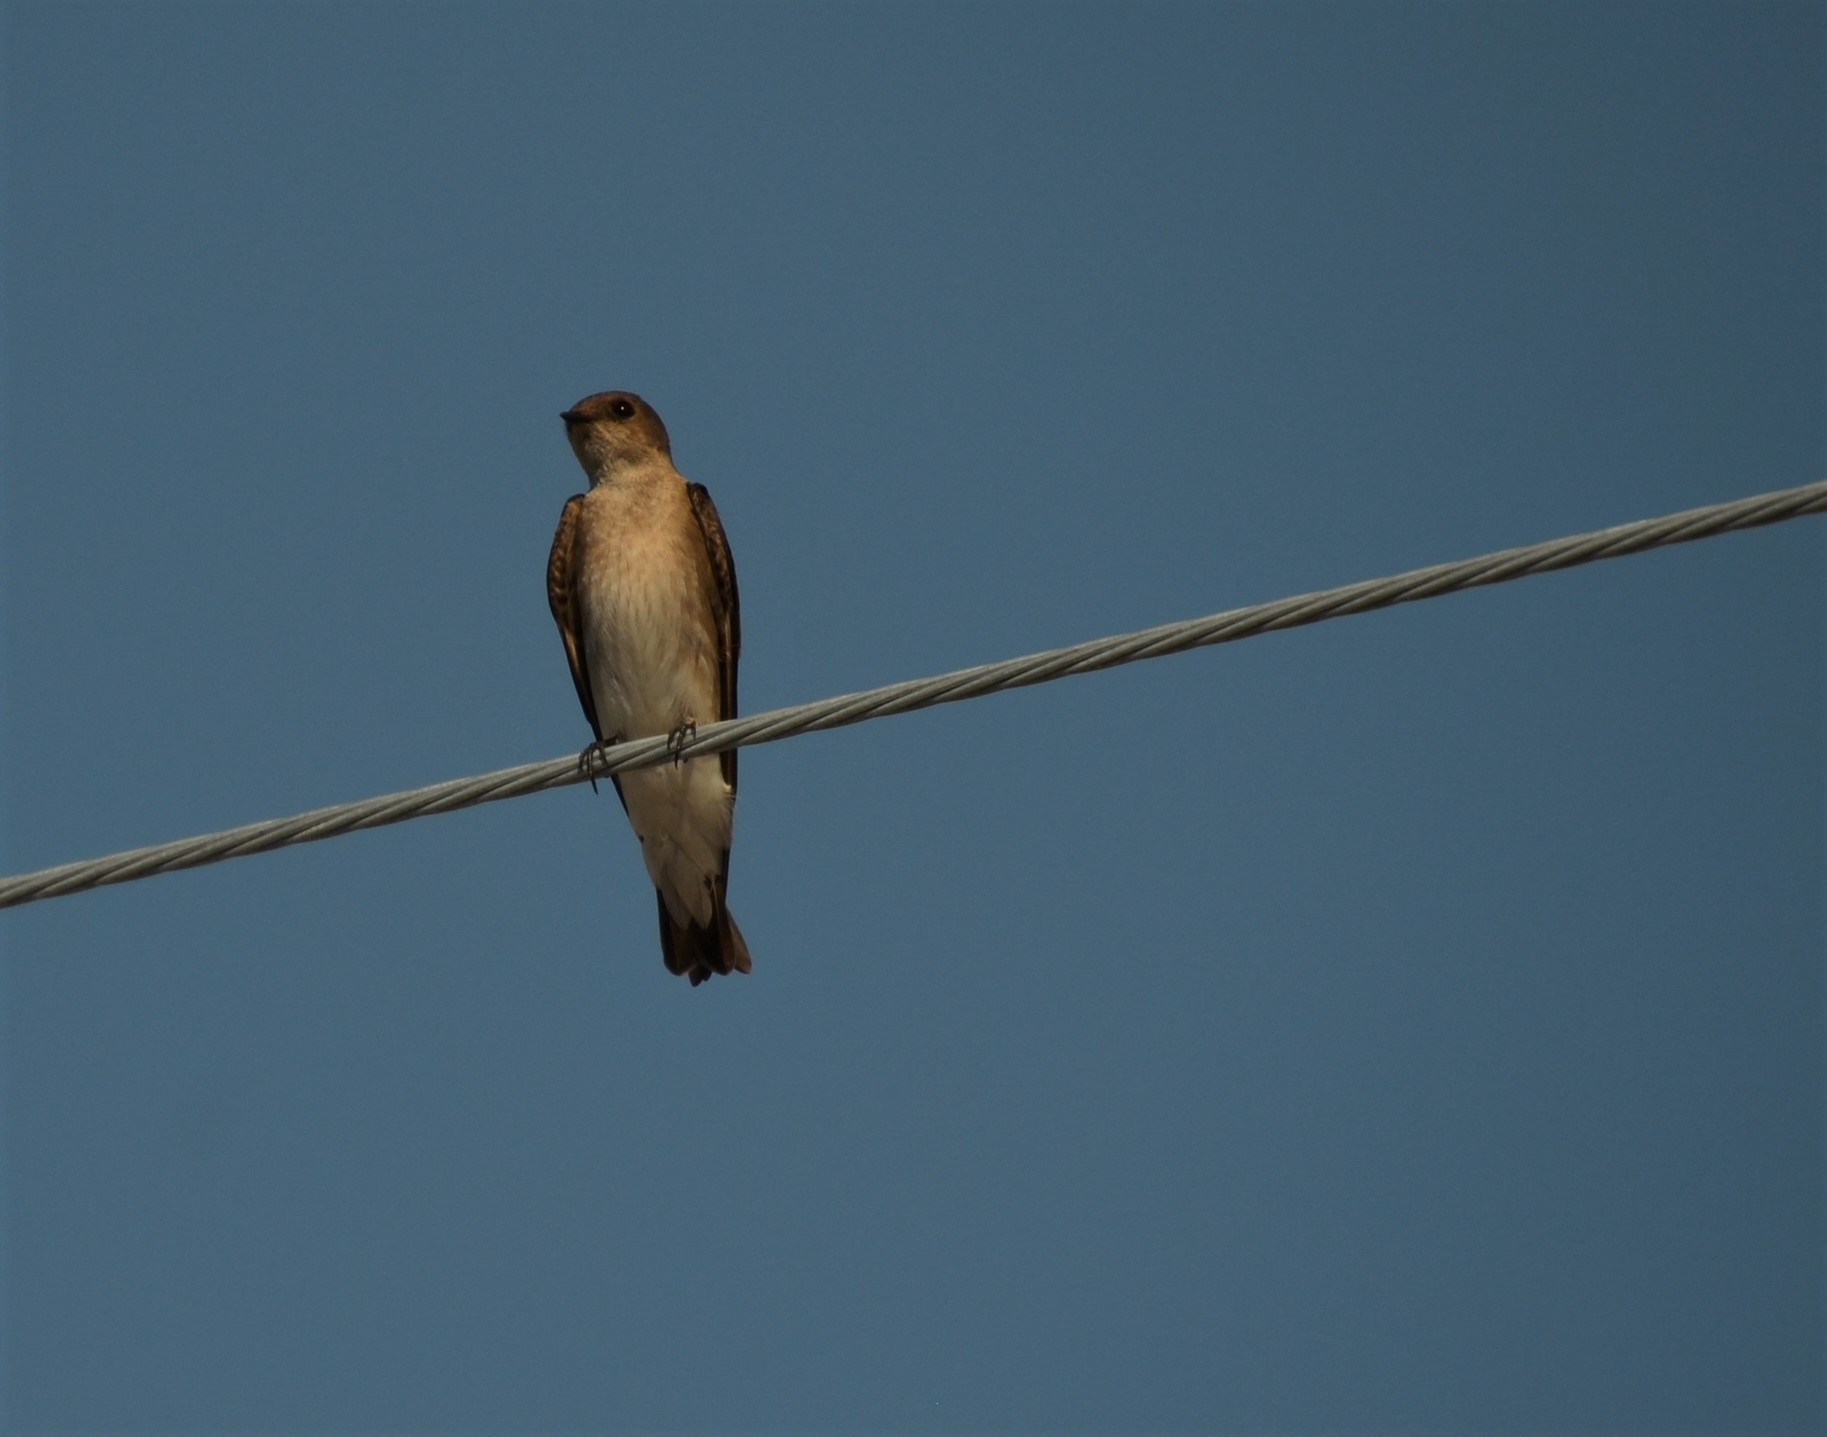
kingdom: Animalia
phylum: Chordata
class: Aves
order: Passeriformes
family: Hirundinidae
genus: Stelgidopteryx
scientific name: Stelgidopteryx serripennis
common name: Northern rough-winged swallow
